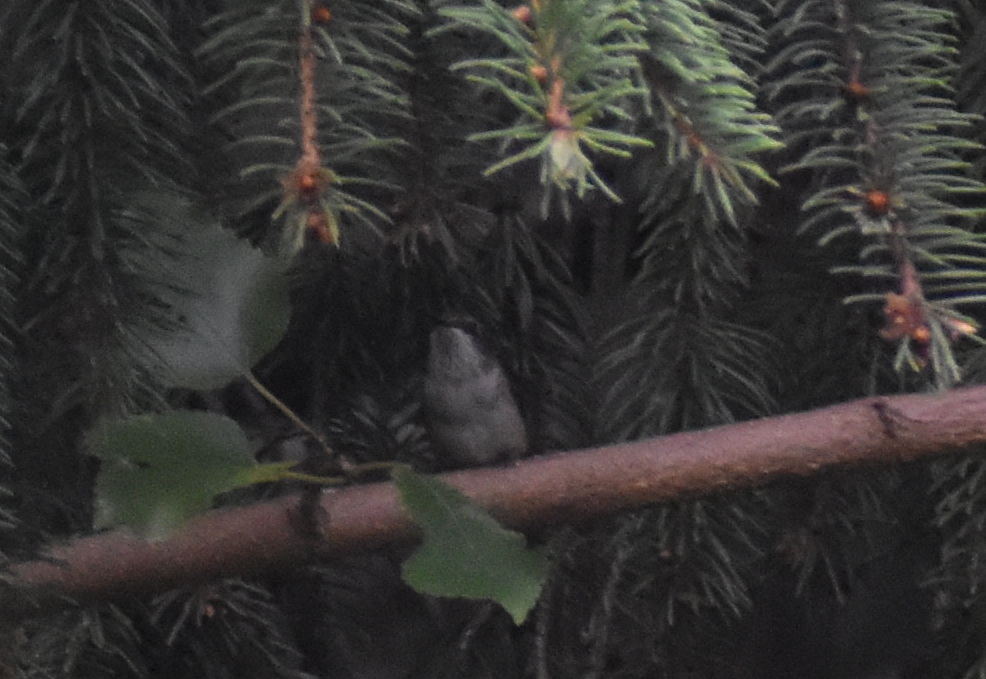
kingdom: Animalia
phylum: Chordata
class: Aves
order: Apodiformes
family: Trochilidae
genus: Archilochus
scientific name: Archilochus colubris
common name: Ruby-throated hummingbird
